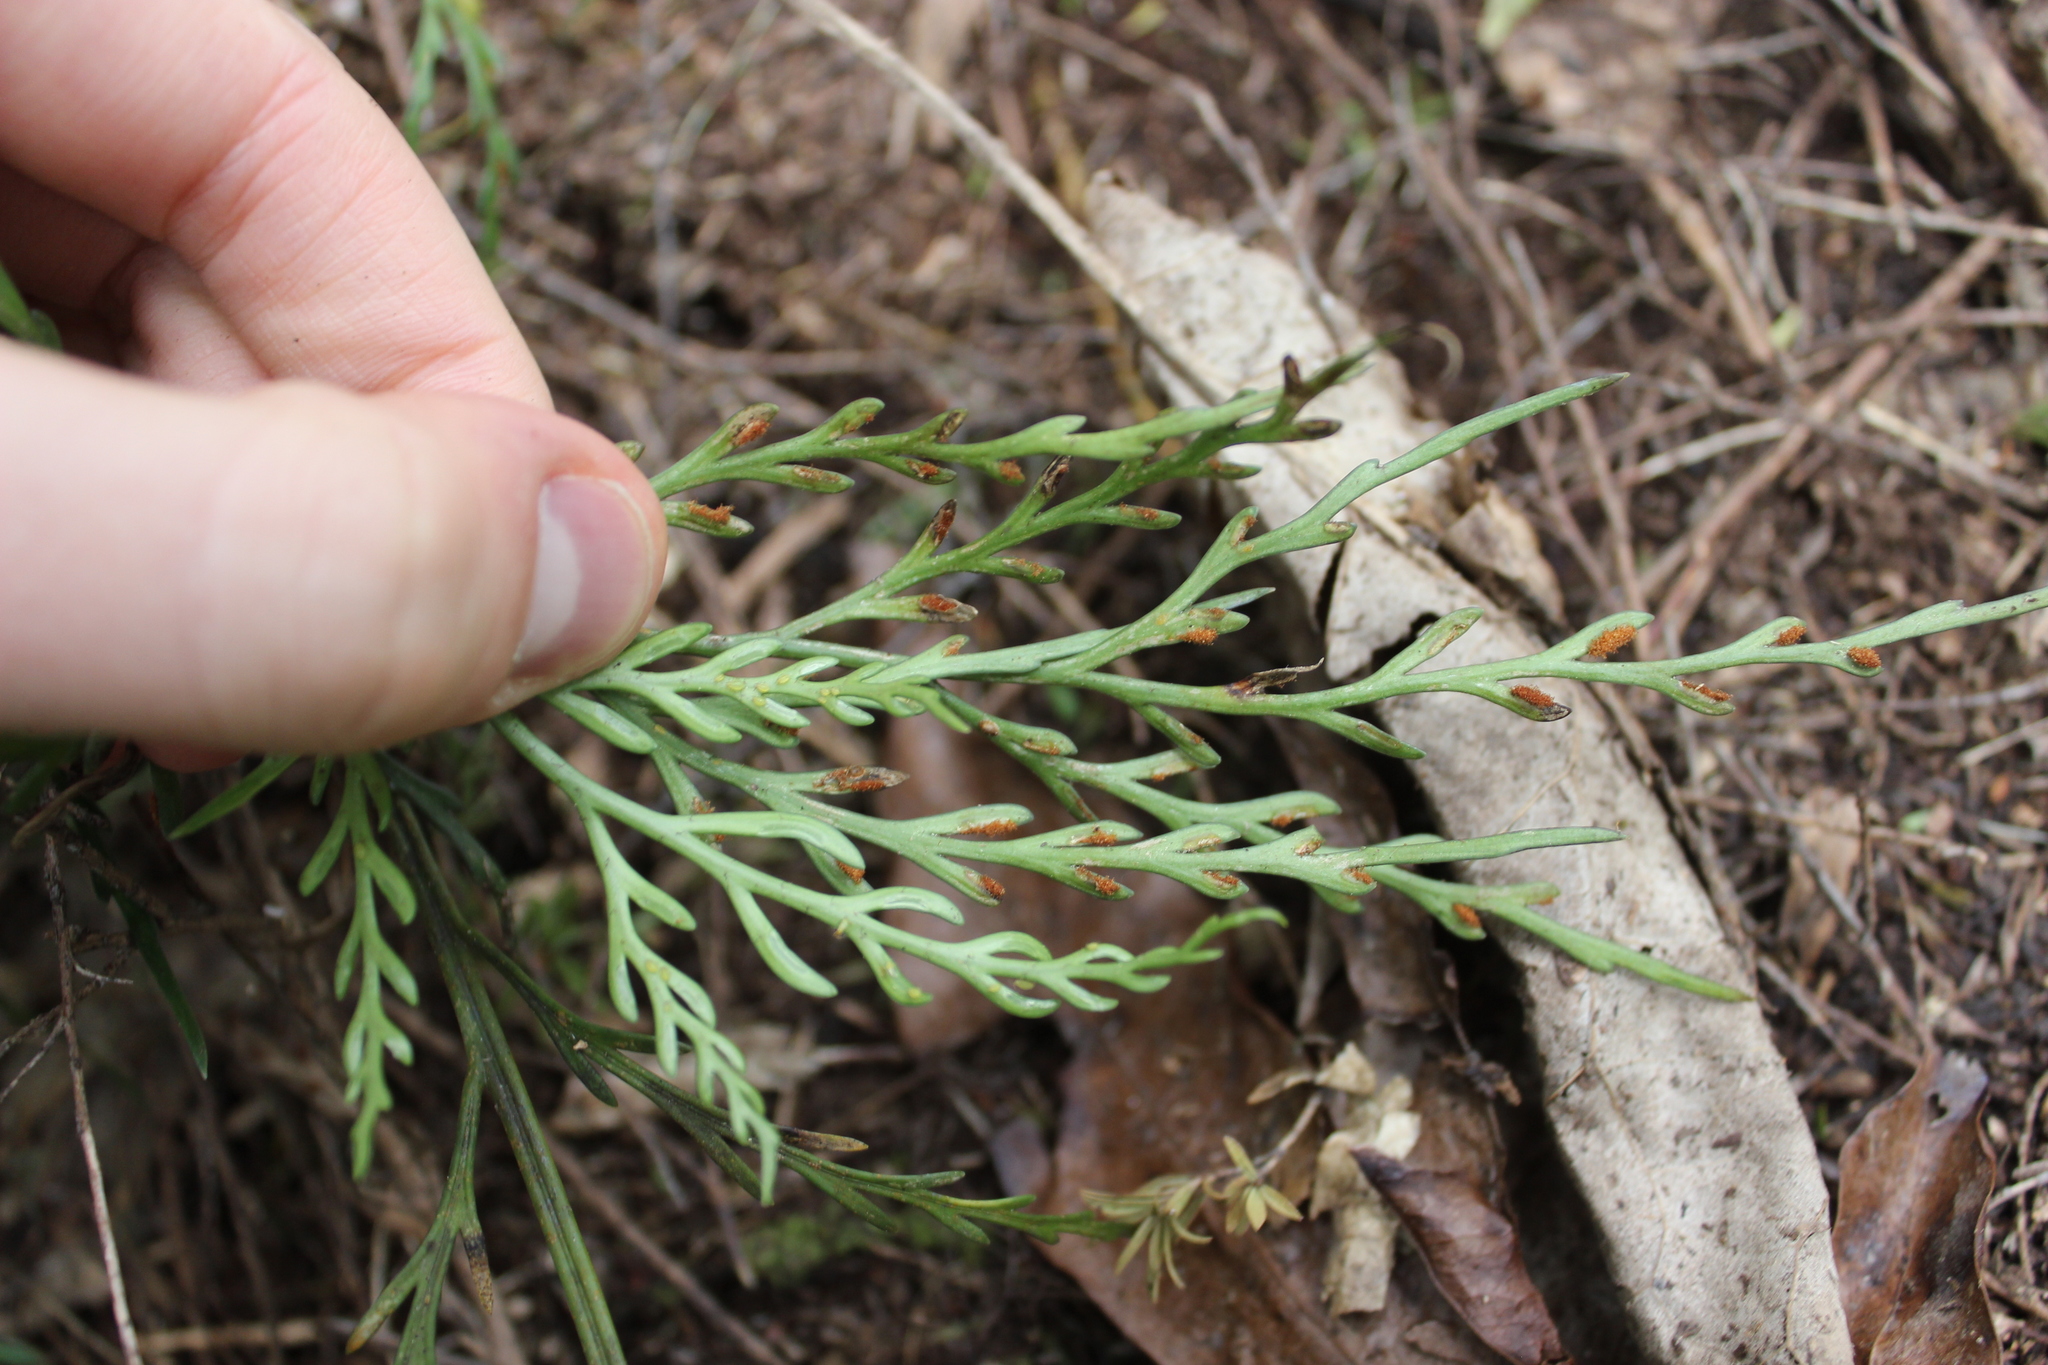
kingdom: Plantae
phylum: Tracheophyta
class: Polypodiopsida
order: Polypodiales
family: Aspleniaceae
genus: Asplenium
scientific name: Asplenium flaccidum
